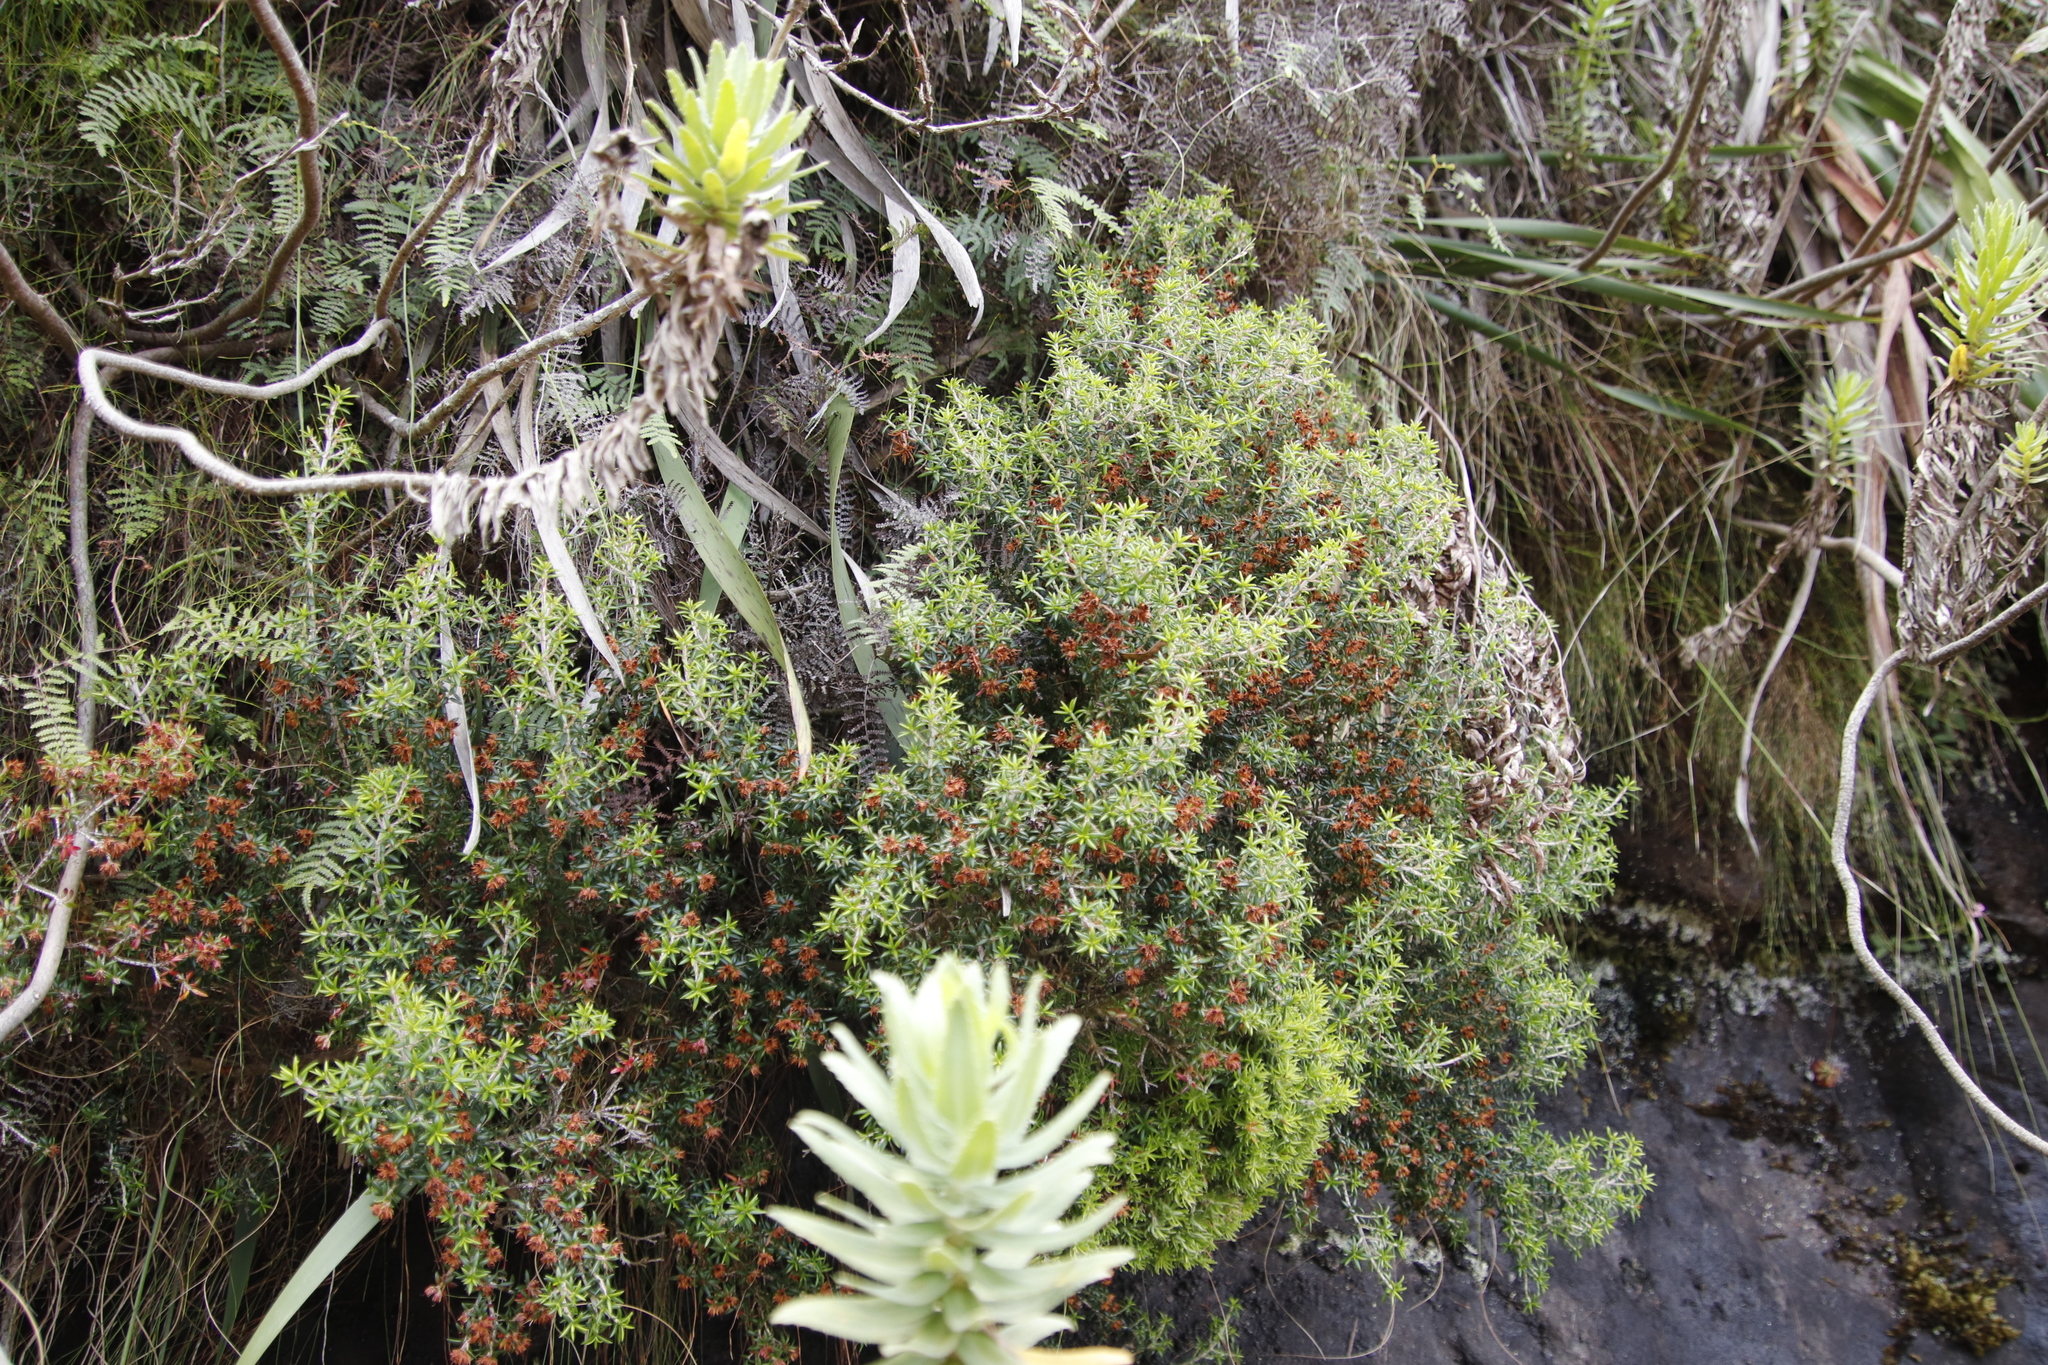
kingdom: Plantae
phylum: Tracheophyta
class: Magnoliopsida
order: Ericales
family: Ericaceae
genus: Erica
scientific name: Erica petiolaris
